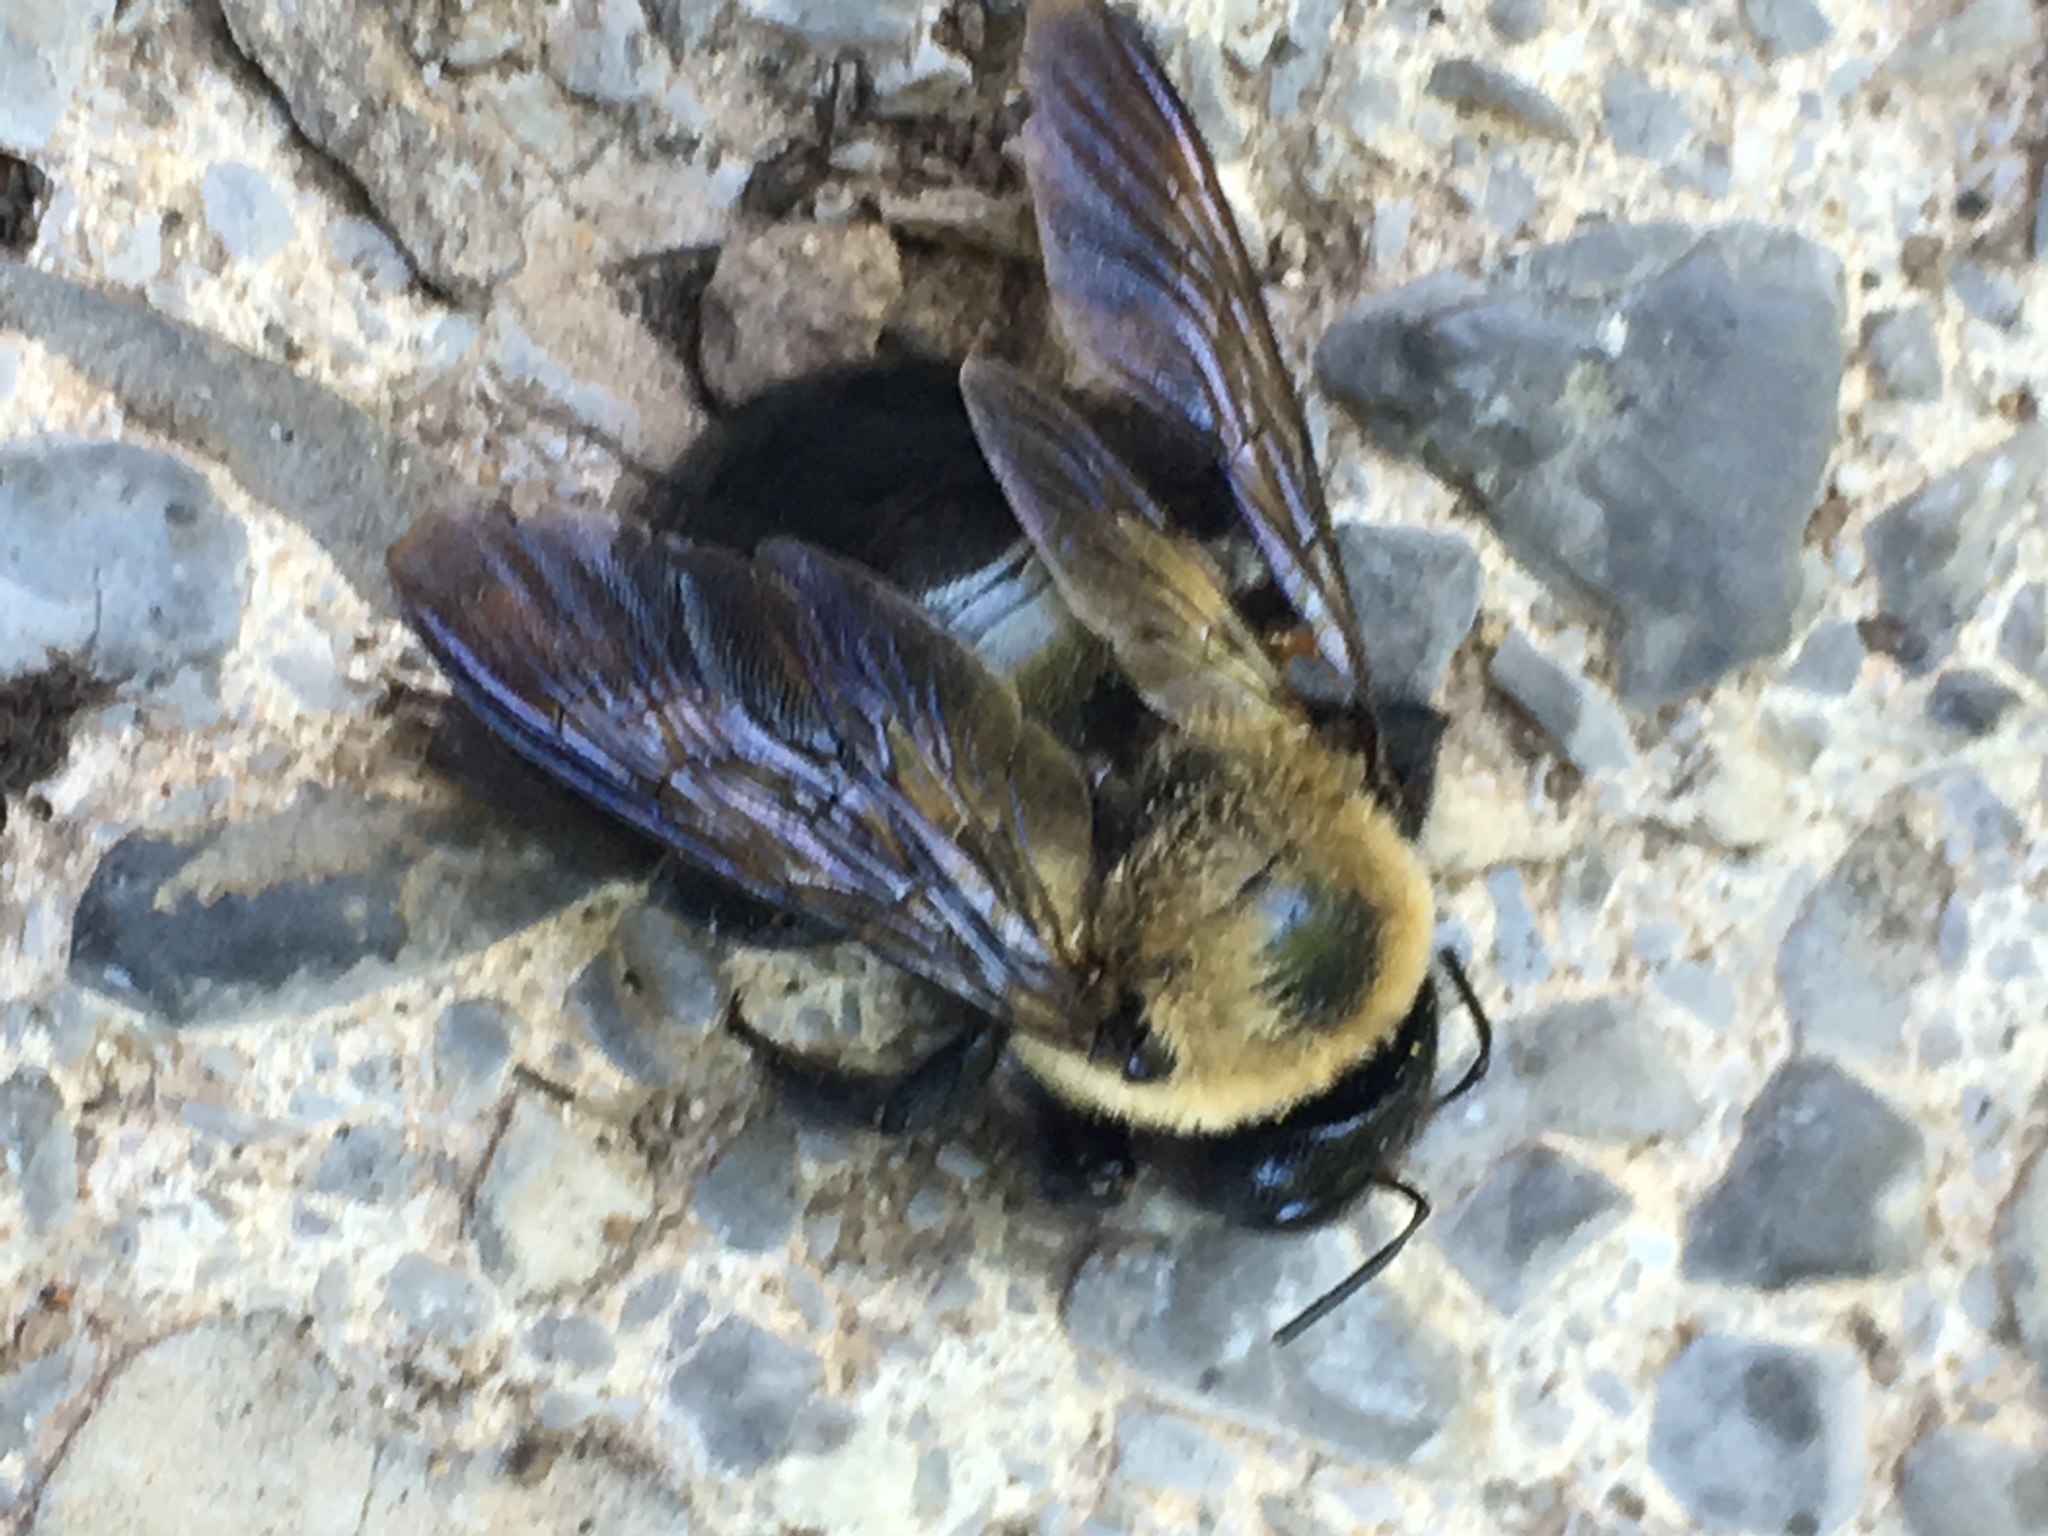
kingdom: Animalia
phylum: Arthropoda
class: Insecta
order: Hymenoptera
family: Apidae
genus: Xylocopa
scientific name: Xylocopa virginica
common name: Carpenter bee
